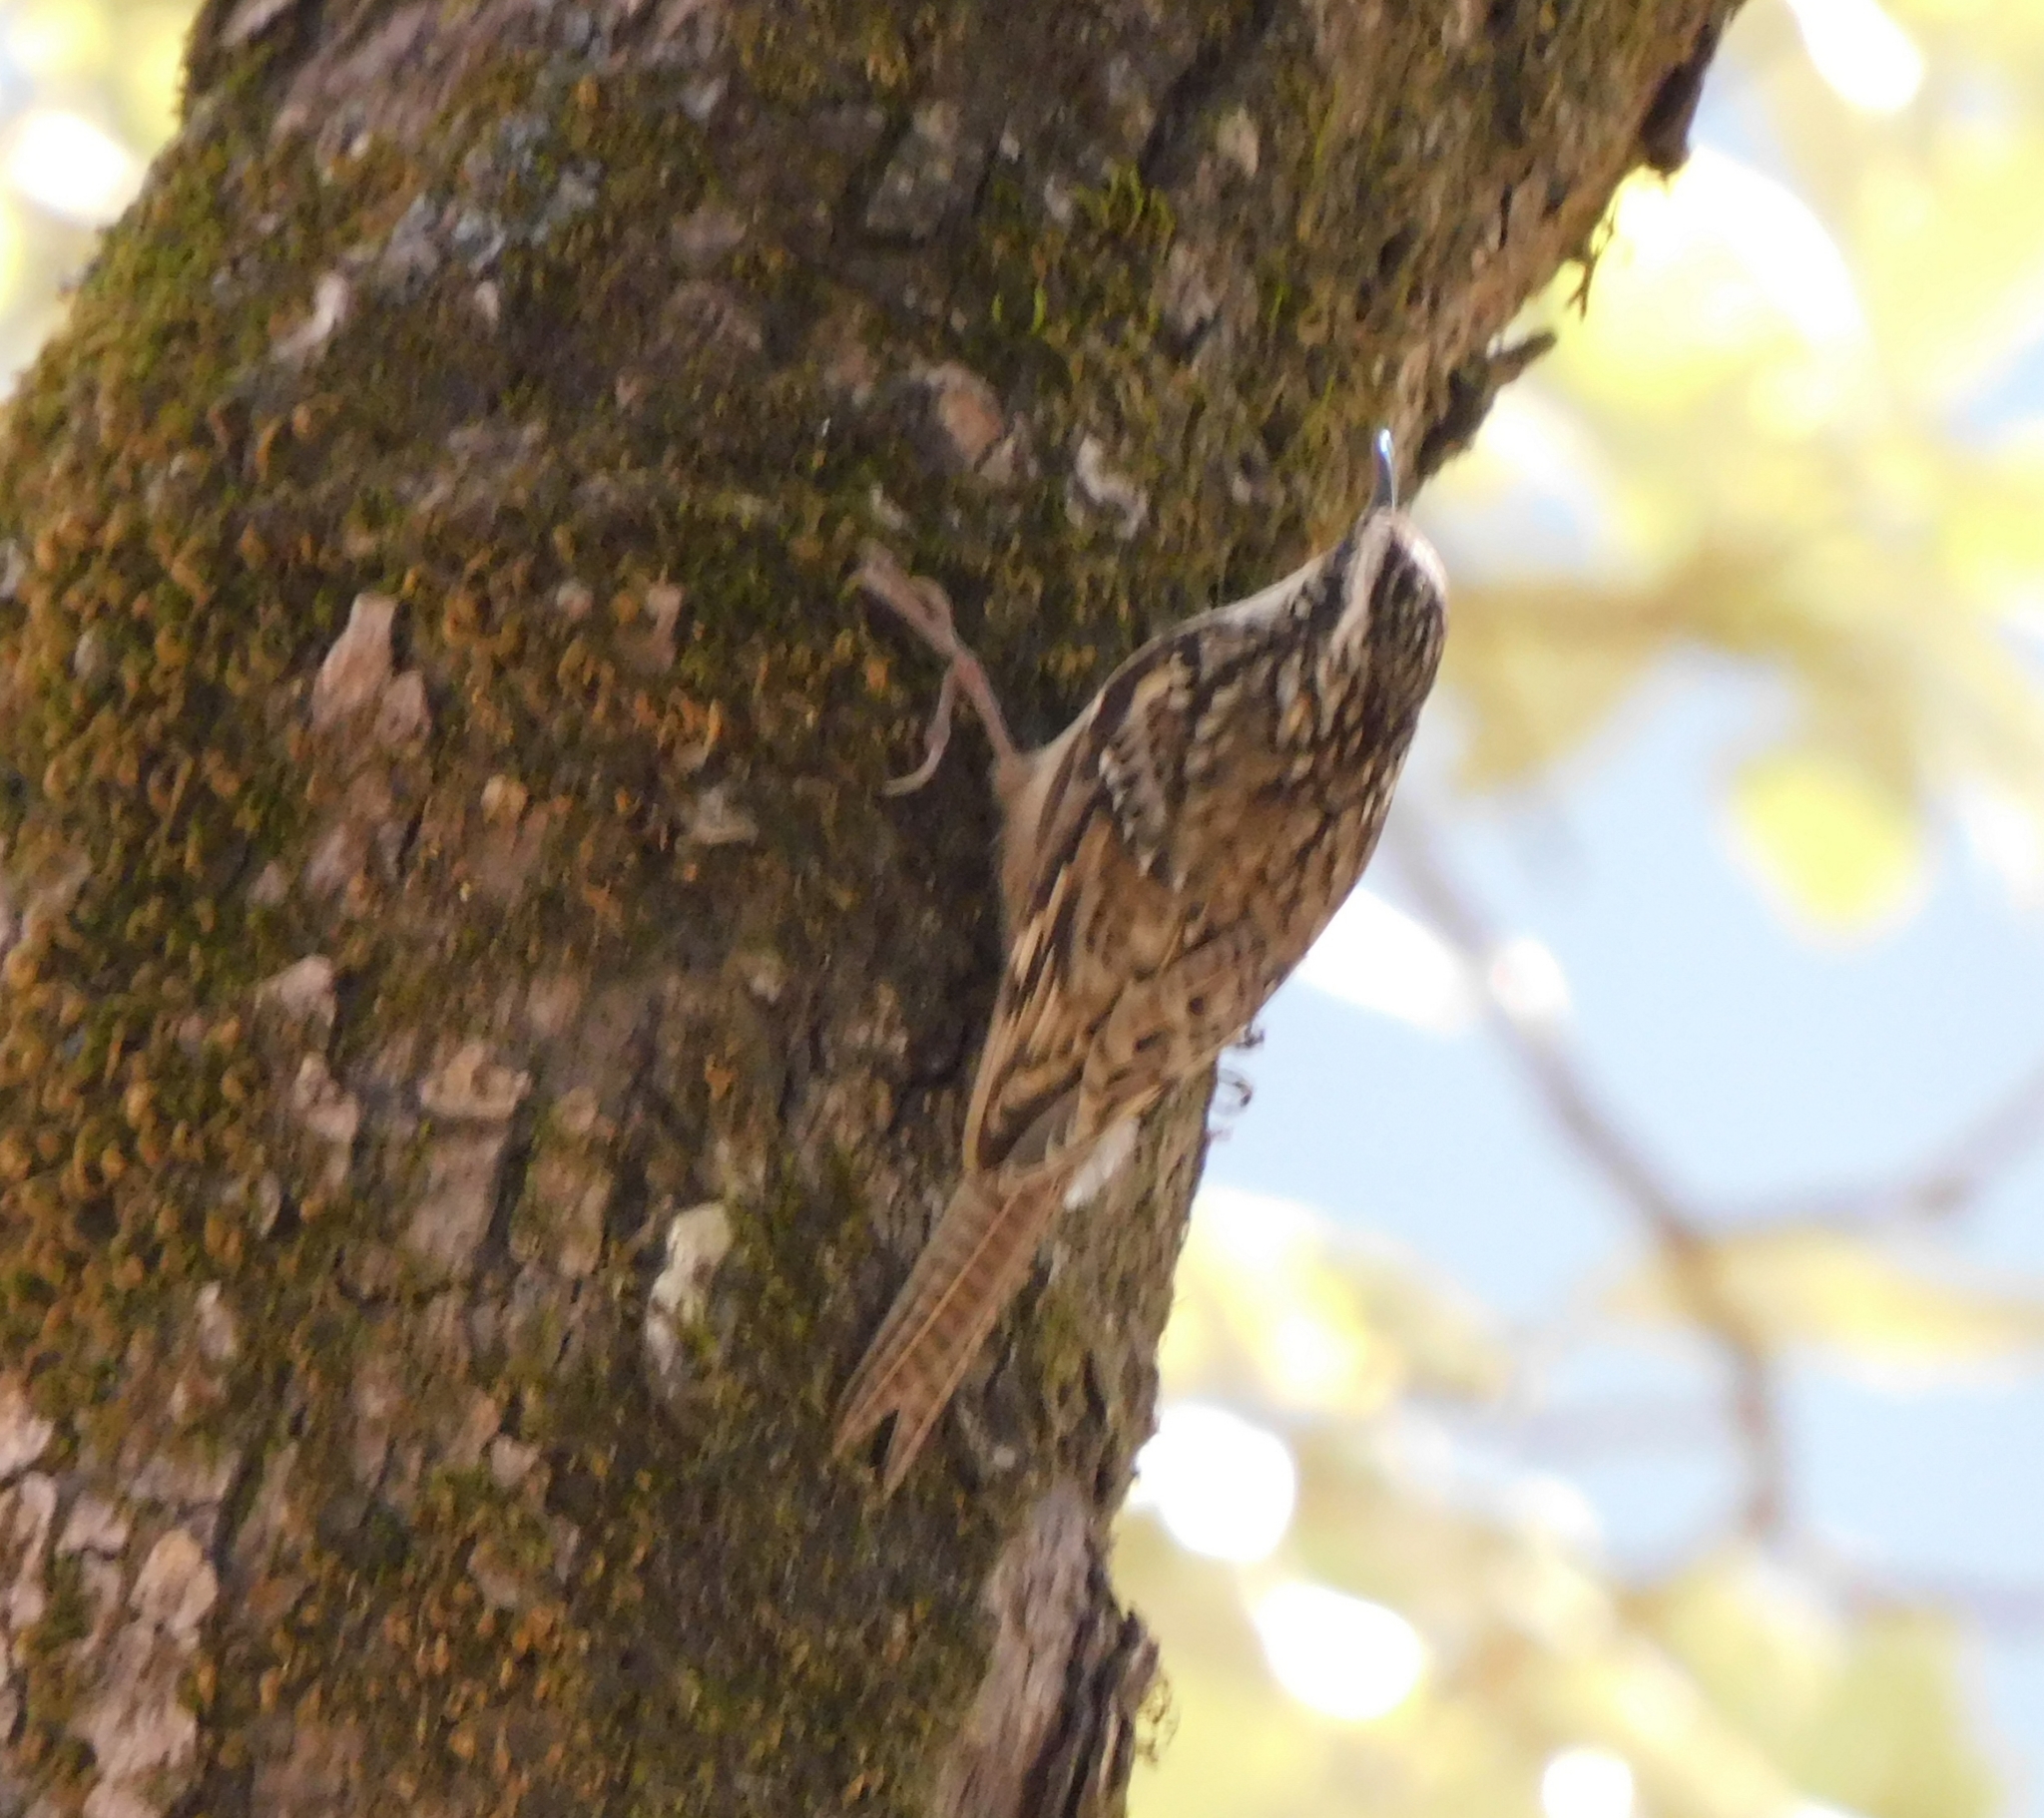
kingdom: Animalia
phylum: Chordata
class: Aves
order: Passeriformes
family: Certhiidae
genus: Certhia
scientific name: Certhia himalayana
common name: Bar-tailed treecreeper
